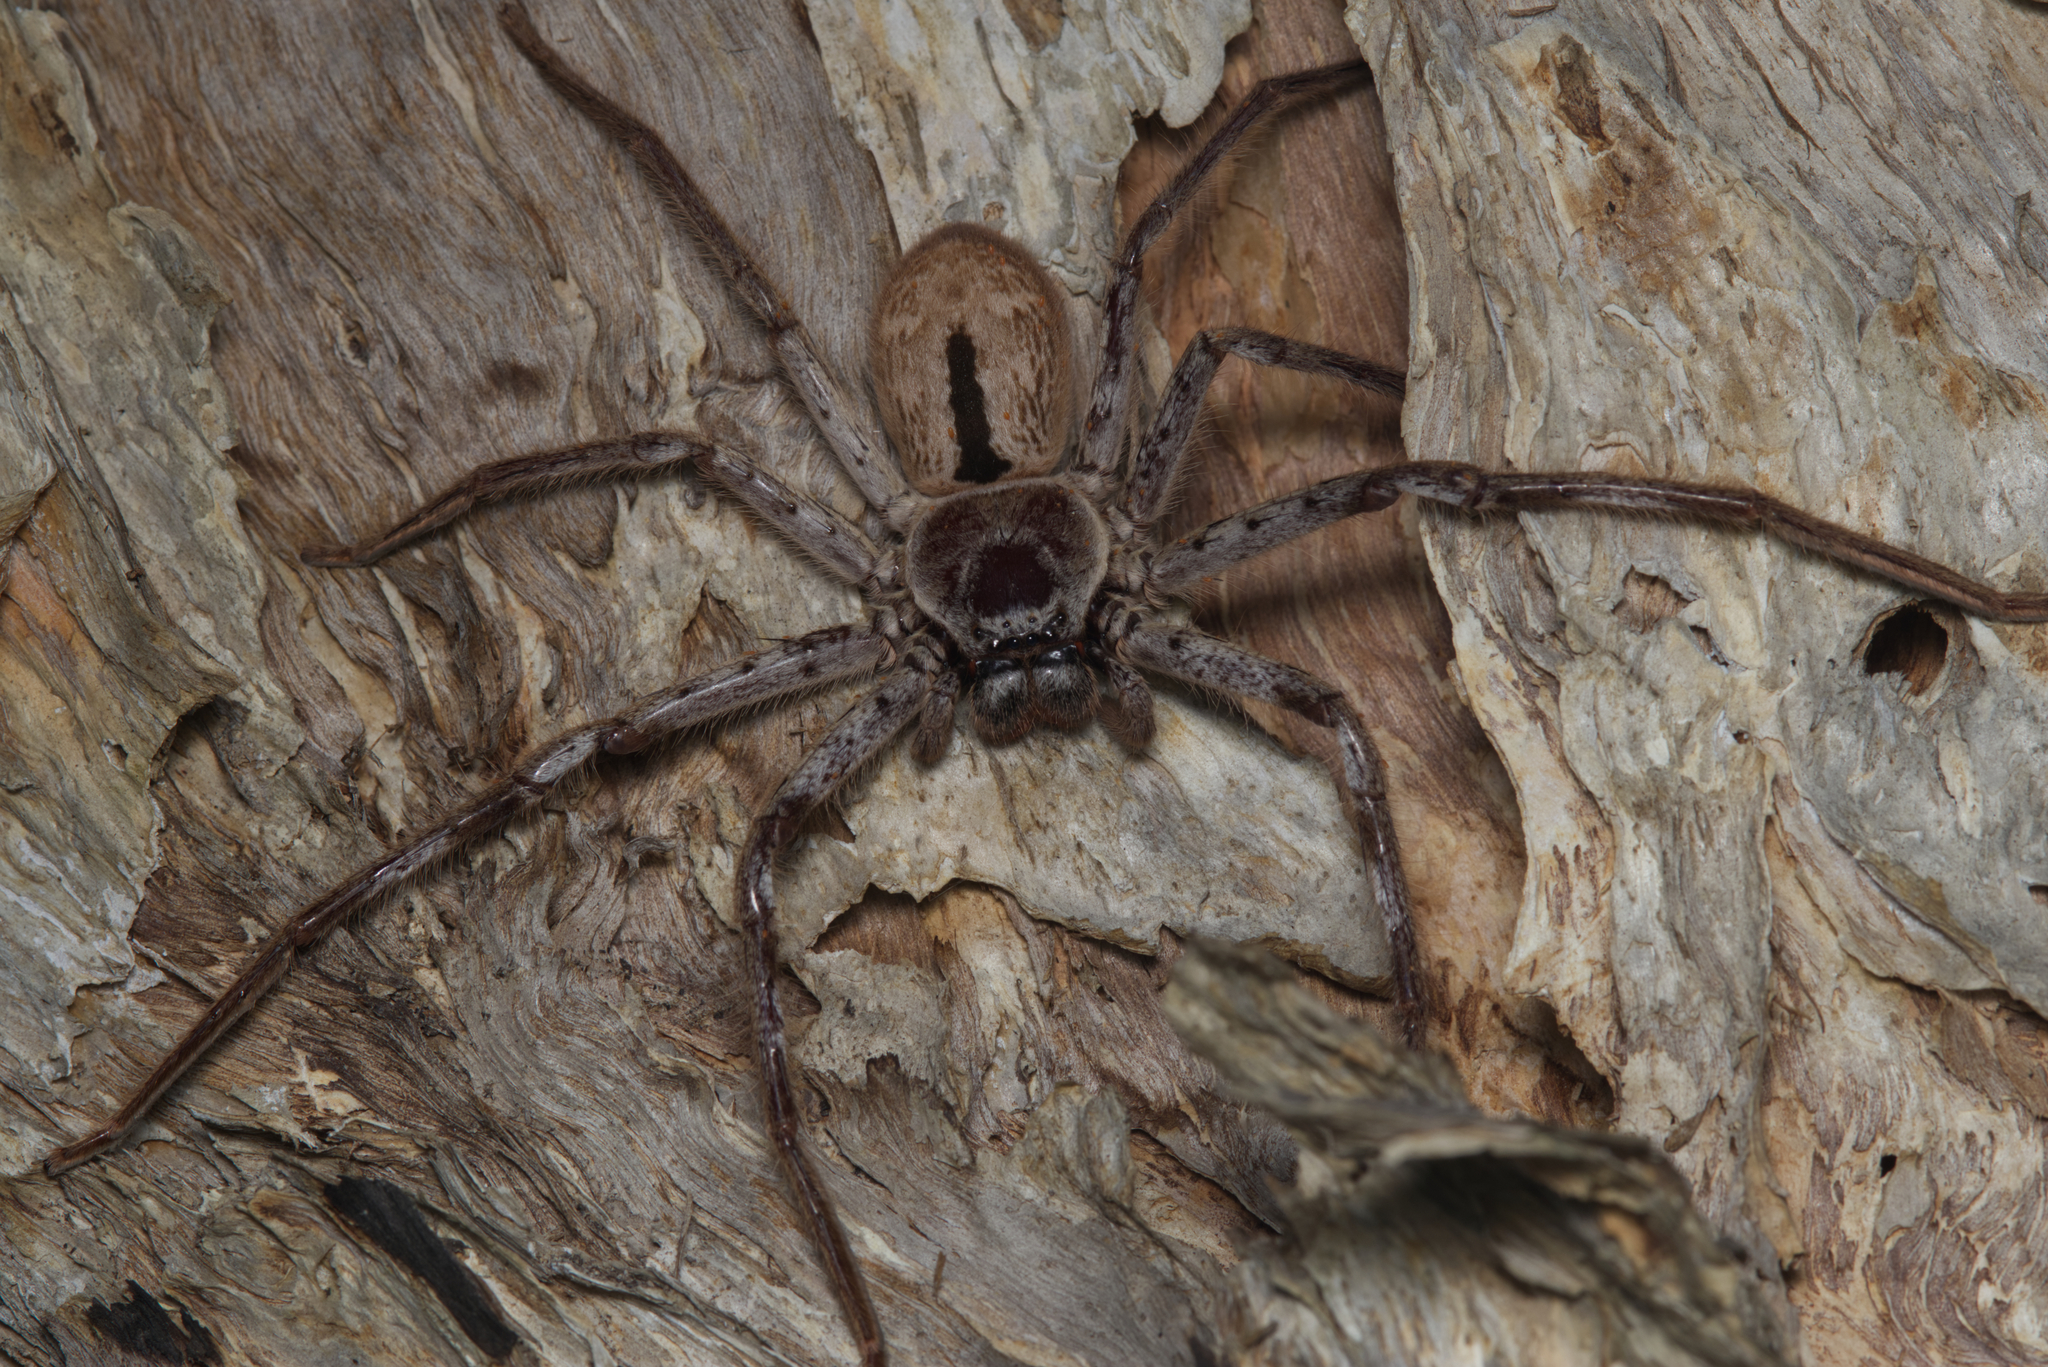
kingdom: Animalia
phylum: Arthropoda
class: Arachnida
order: Araneae
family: Sparassidae
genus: Holconia
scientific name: Holconia immanis
